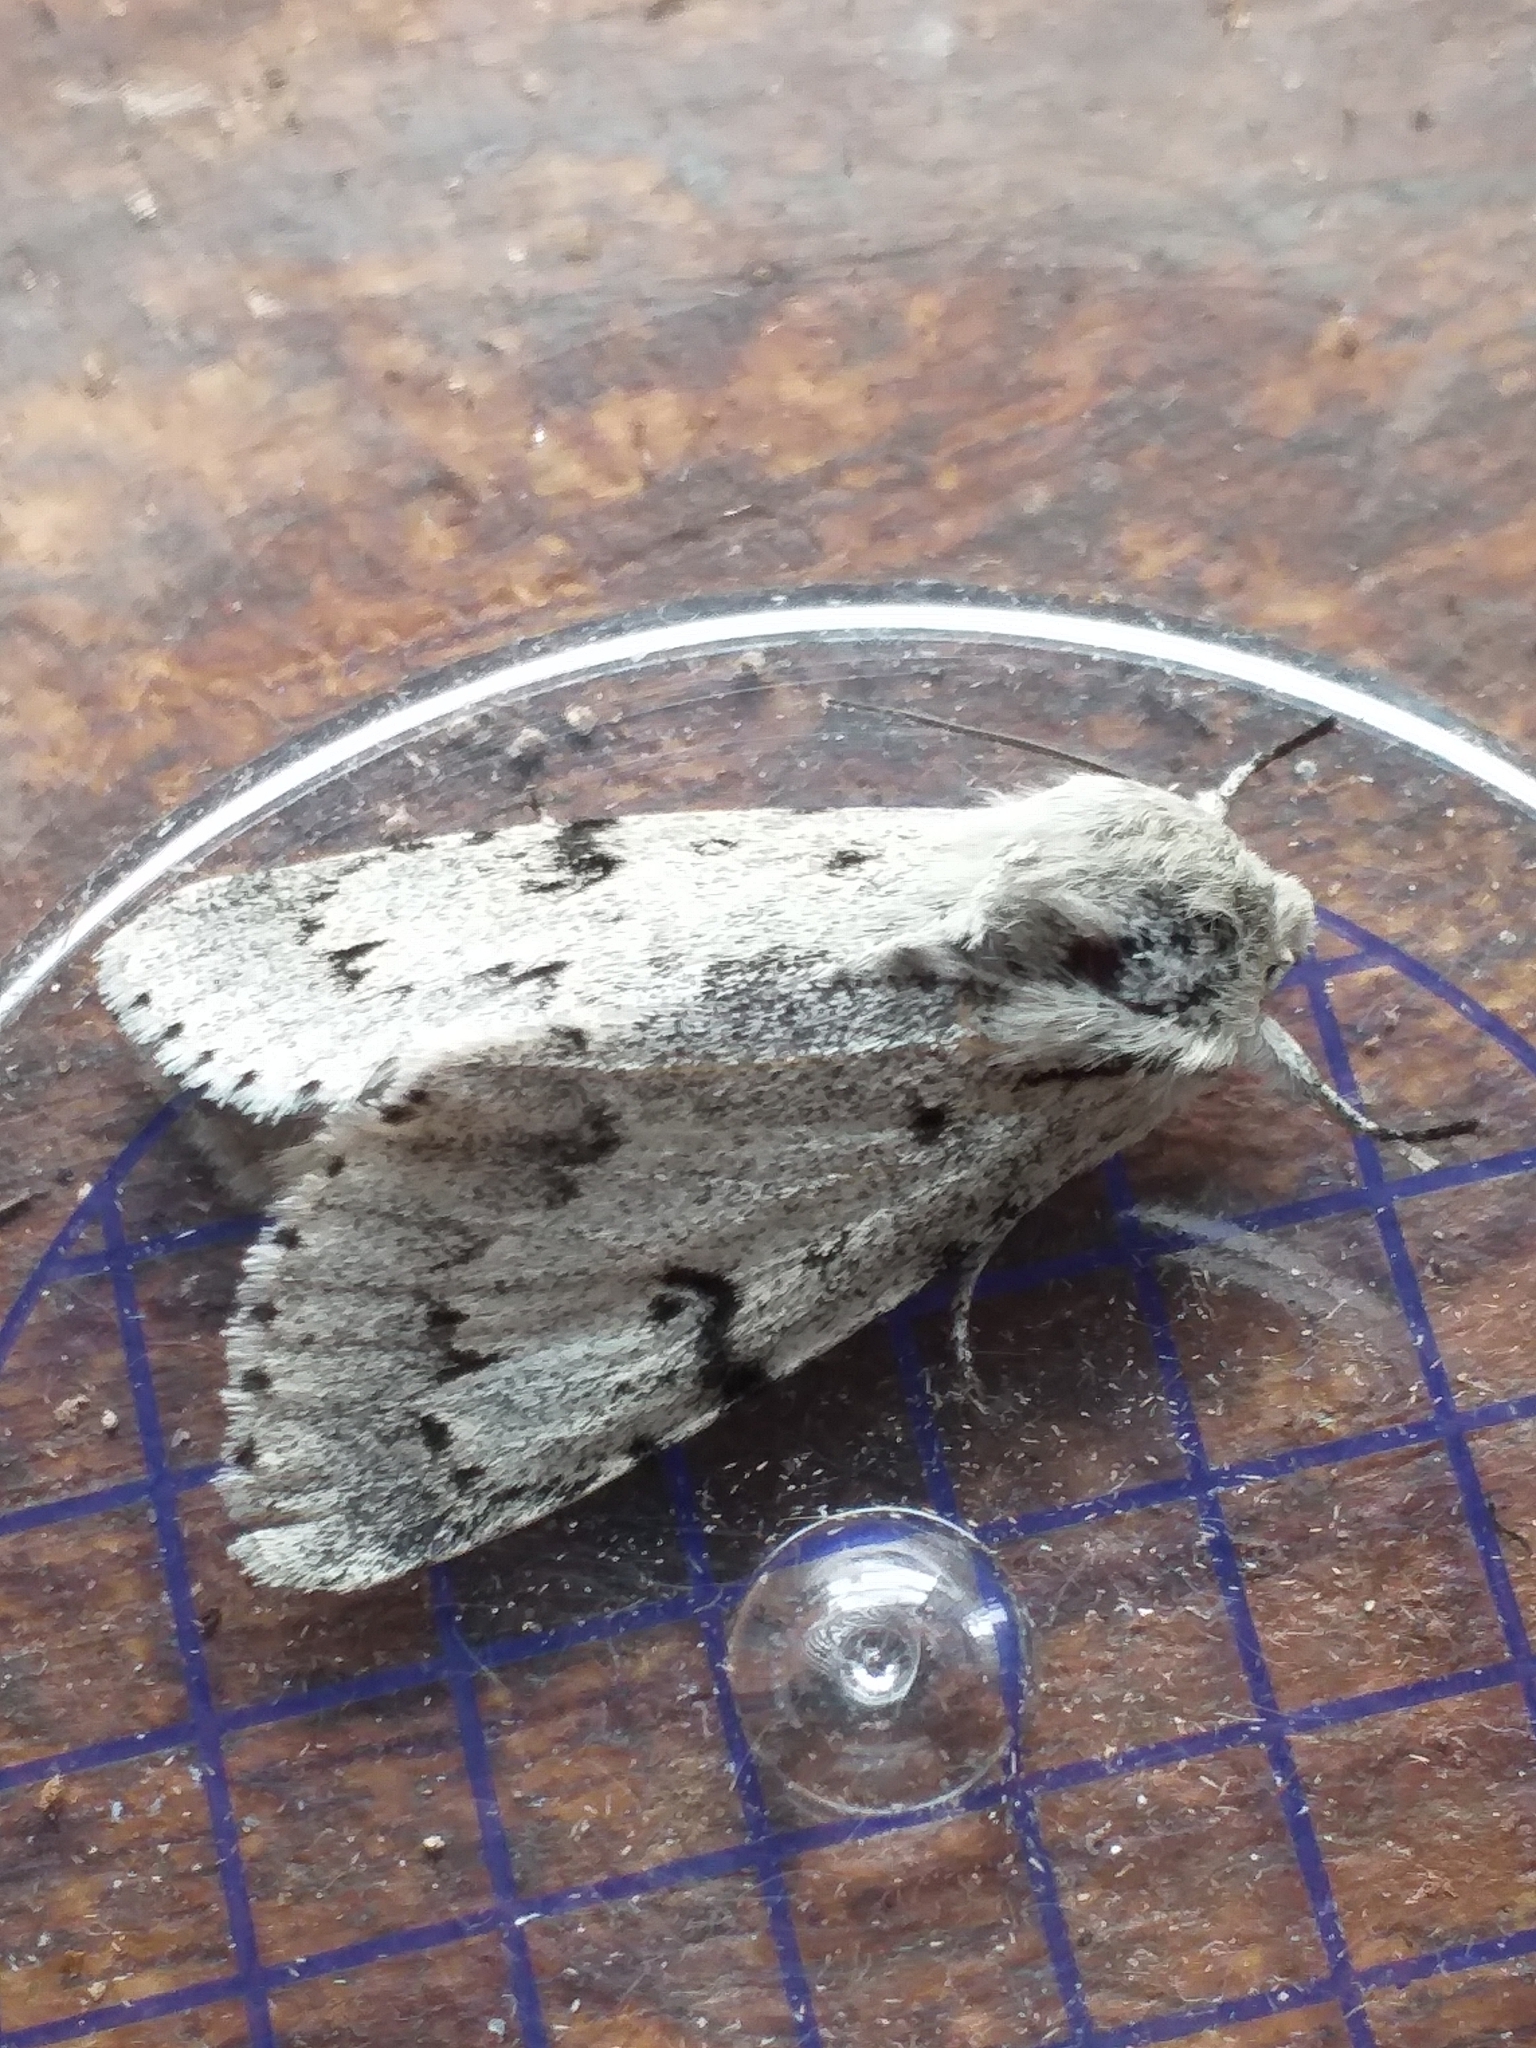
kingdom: Animalia
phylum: Arthropoda
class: Insecta
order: Lepidoptera
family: Noctuidae
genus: Acronicta
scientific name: Acronicta leporina
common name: Miller
